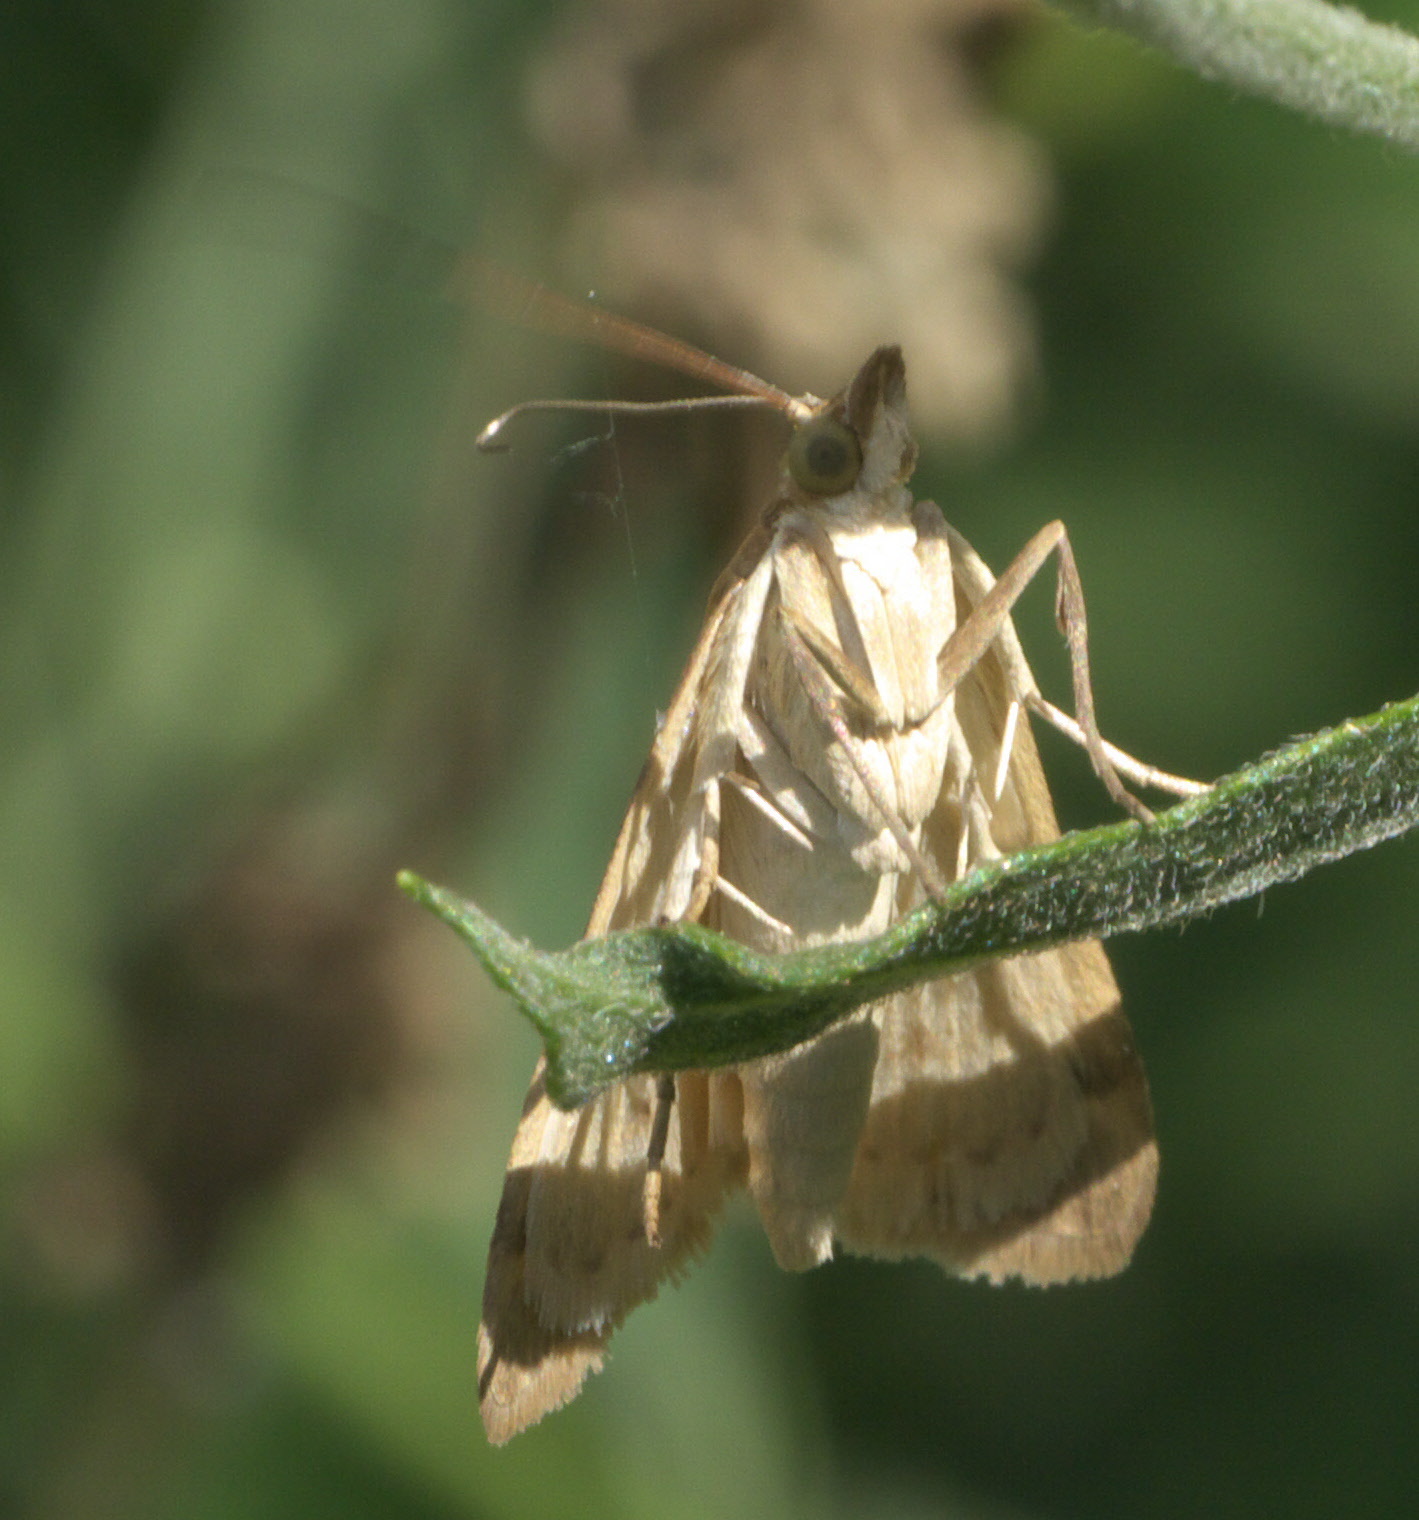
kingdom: Animalia
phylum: Arthropoda
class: Insecta
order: Lepidoptera
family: Crambidae
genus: Achyra
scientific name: Achyra rantalis
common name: Garden webworm
